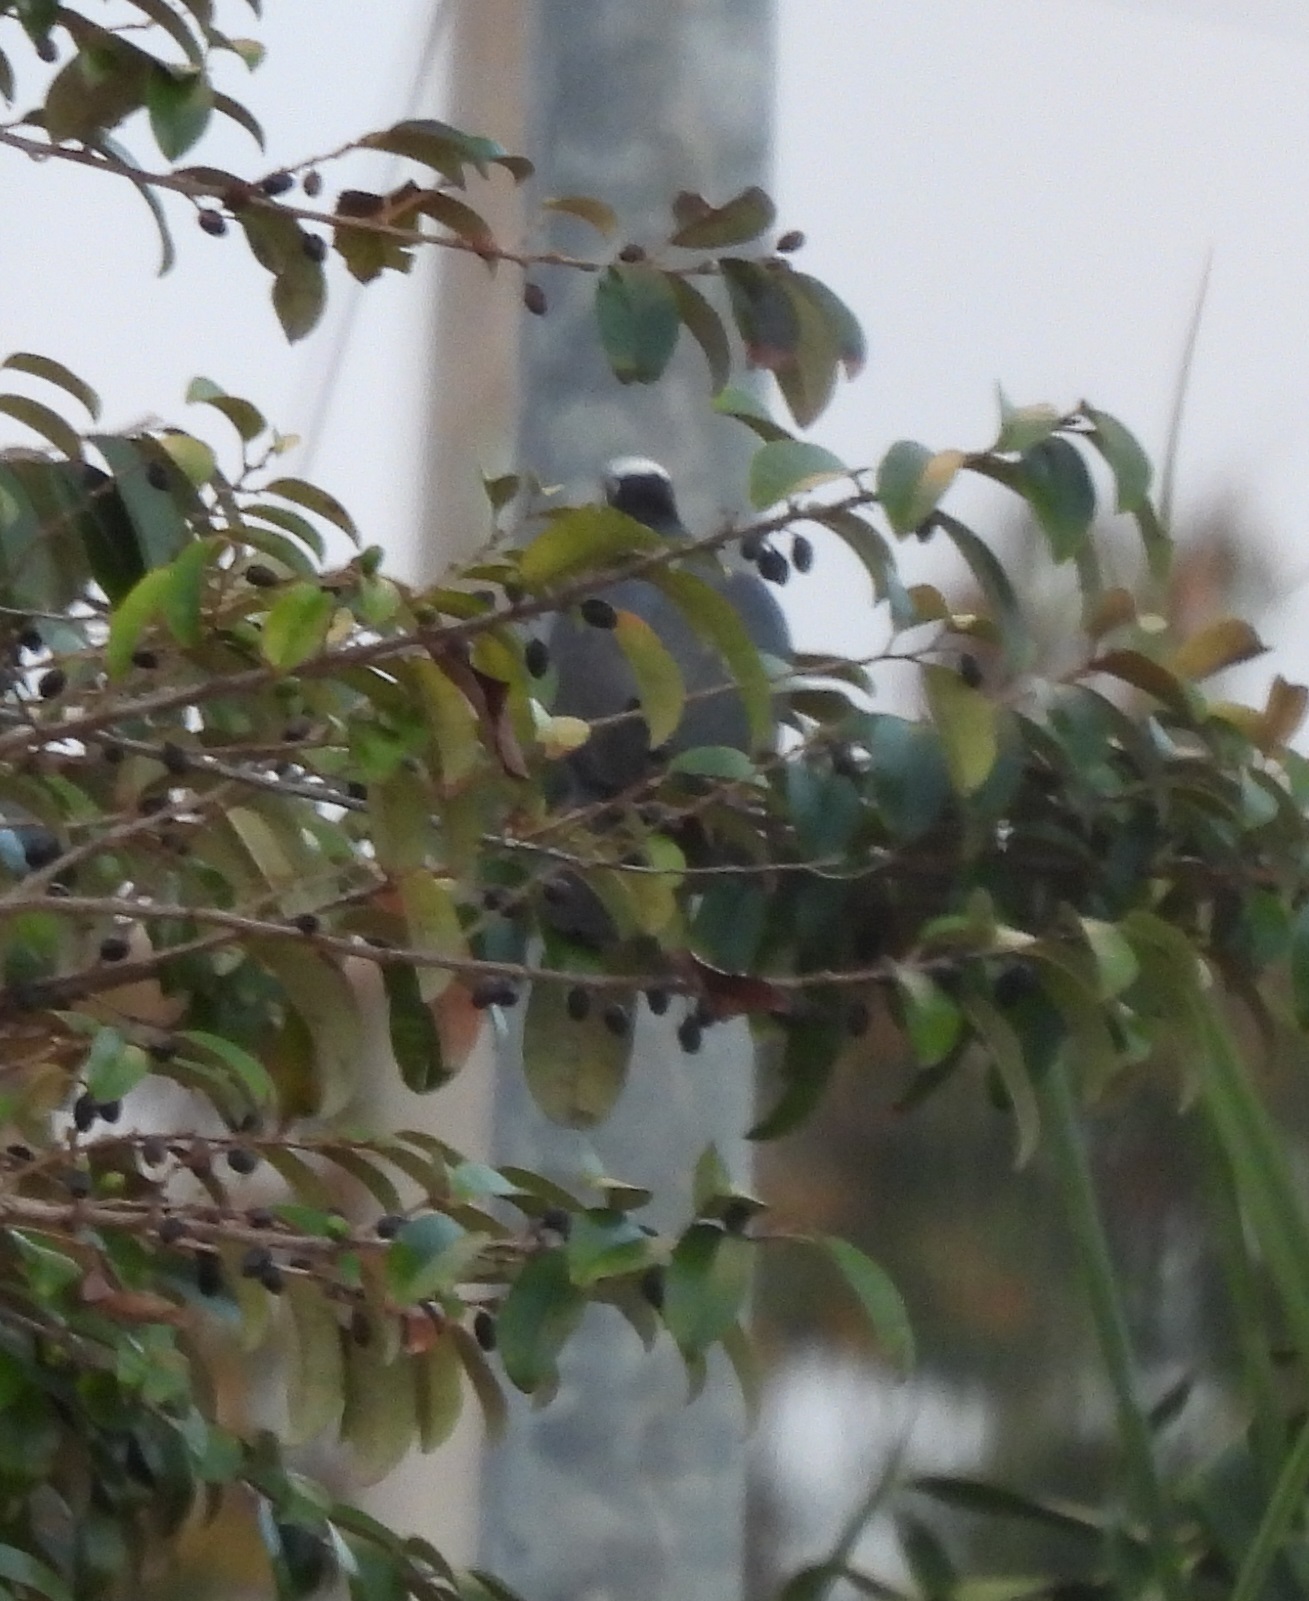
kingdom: Animalia
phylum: Chordata
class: Aves
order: Columbiformes
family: Columbidae
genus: Patagioenas
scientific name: Patagioenas leucocephala
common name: White-crowned pigeon
